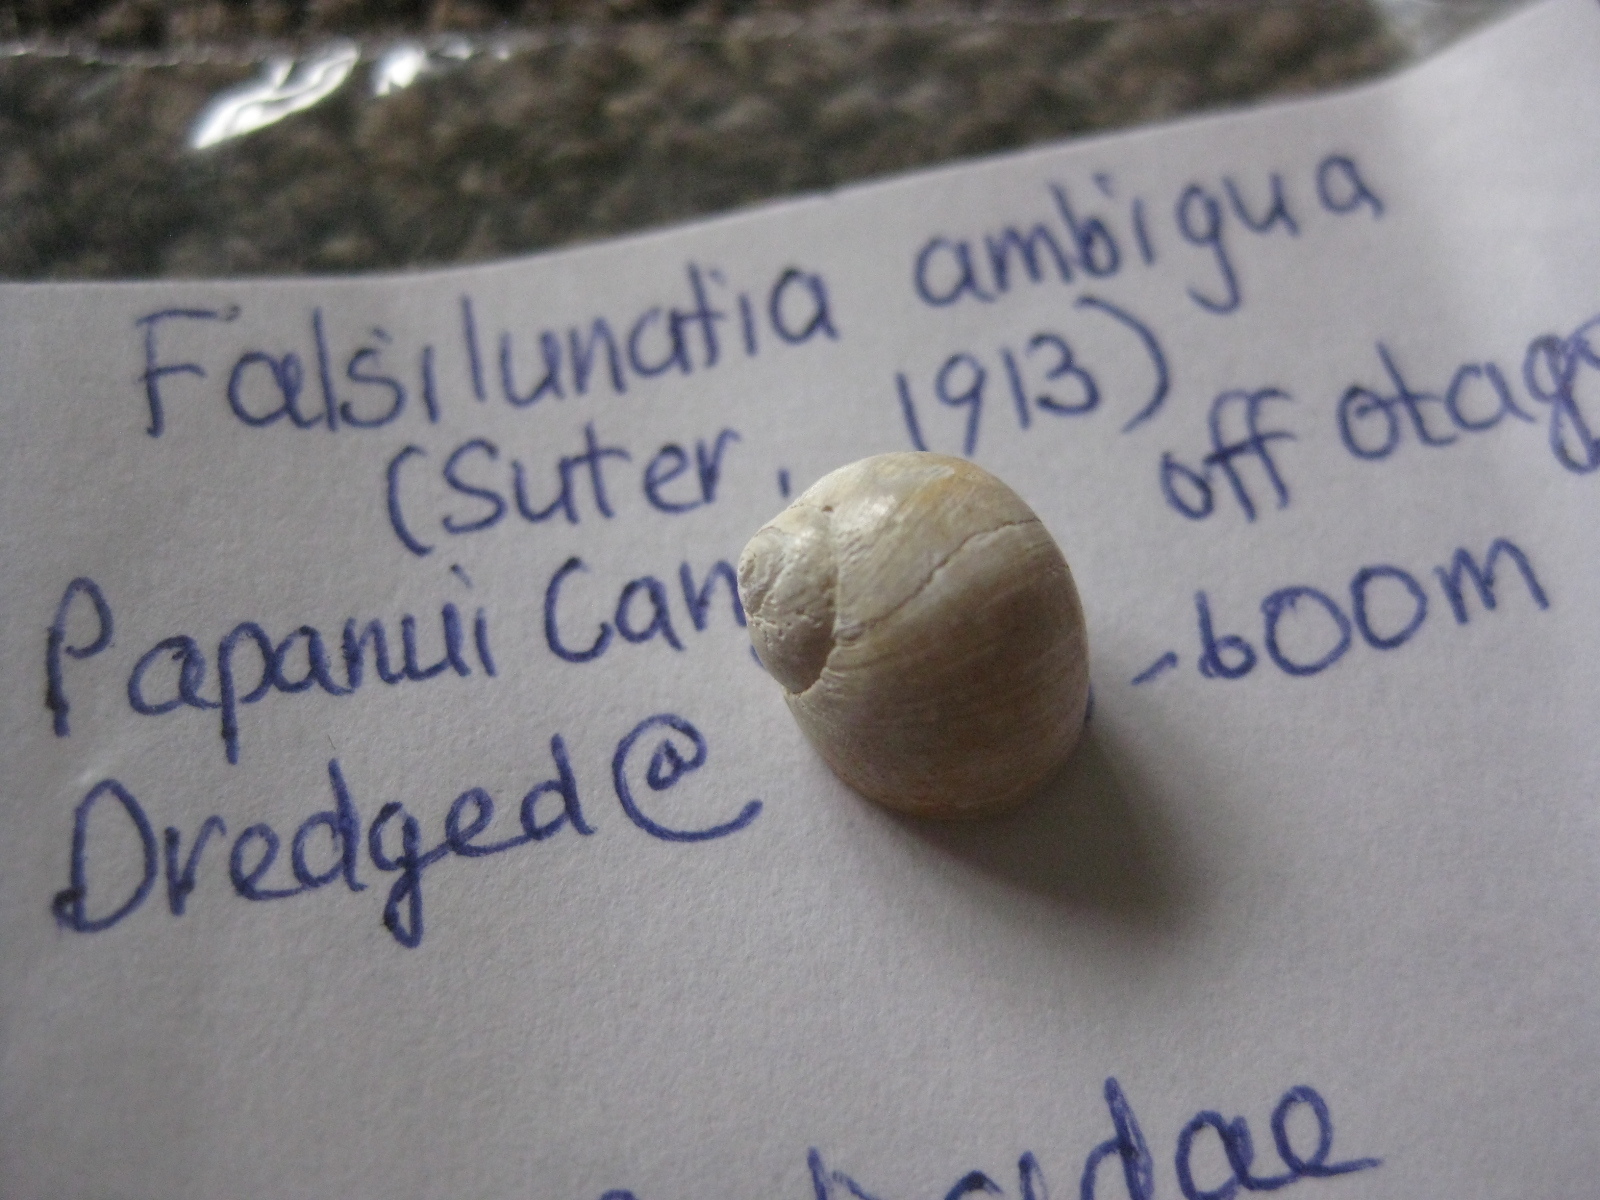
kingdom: Animalia
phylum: Mollusca
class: Gastropoda
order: Littorinimorpha
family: Naticidae
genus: Falsilunatia
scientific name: Falsilunatia ambigua
